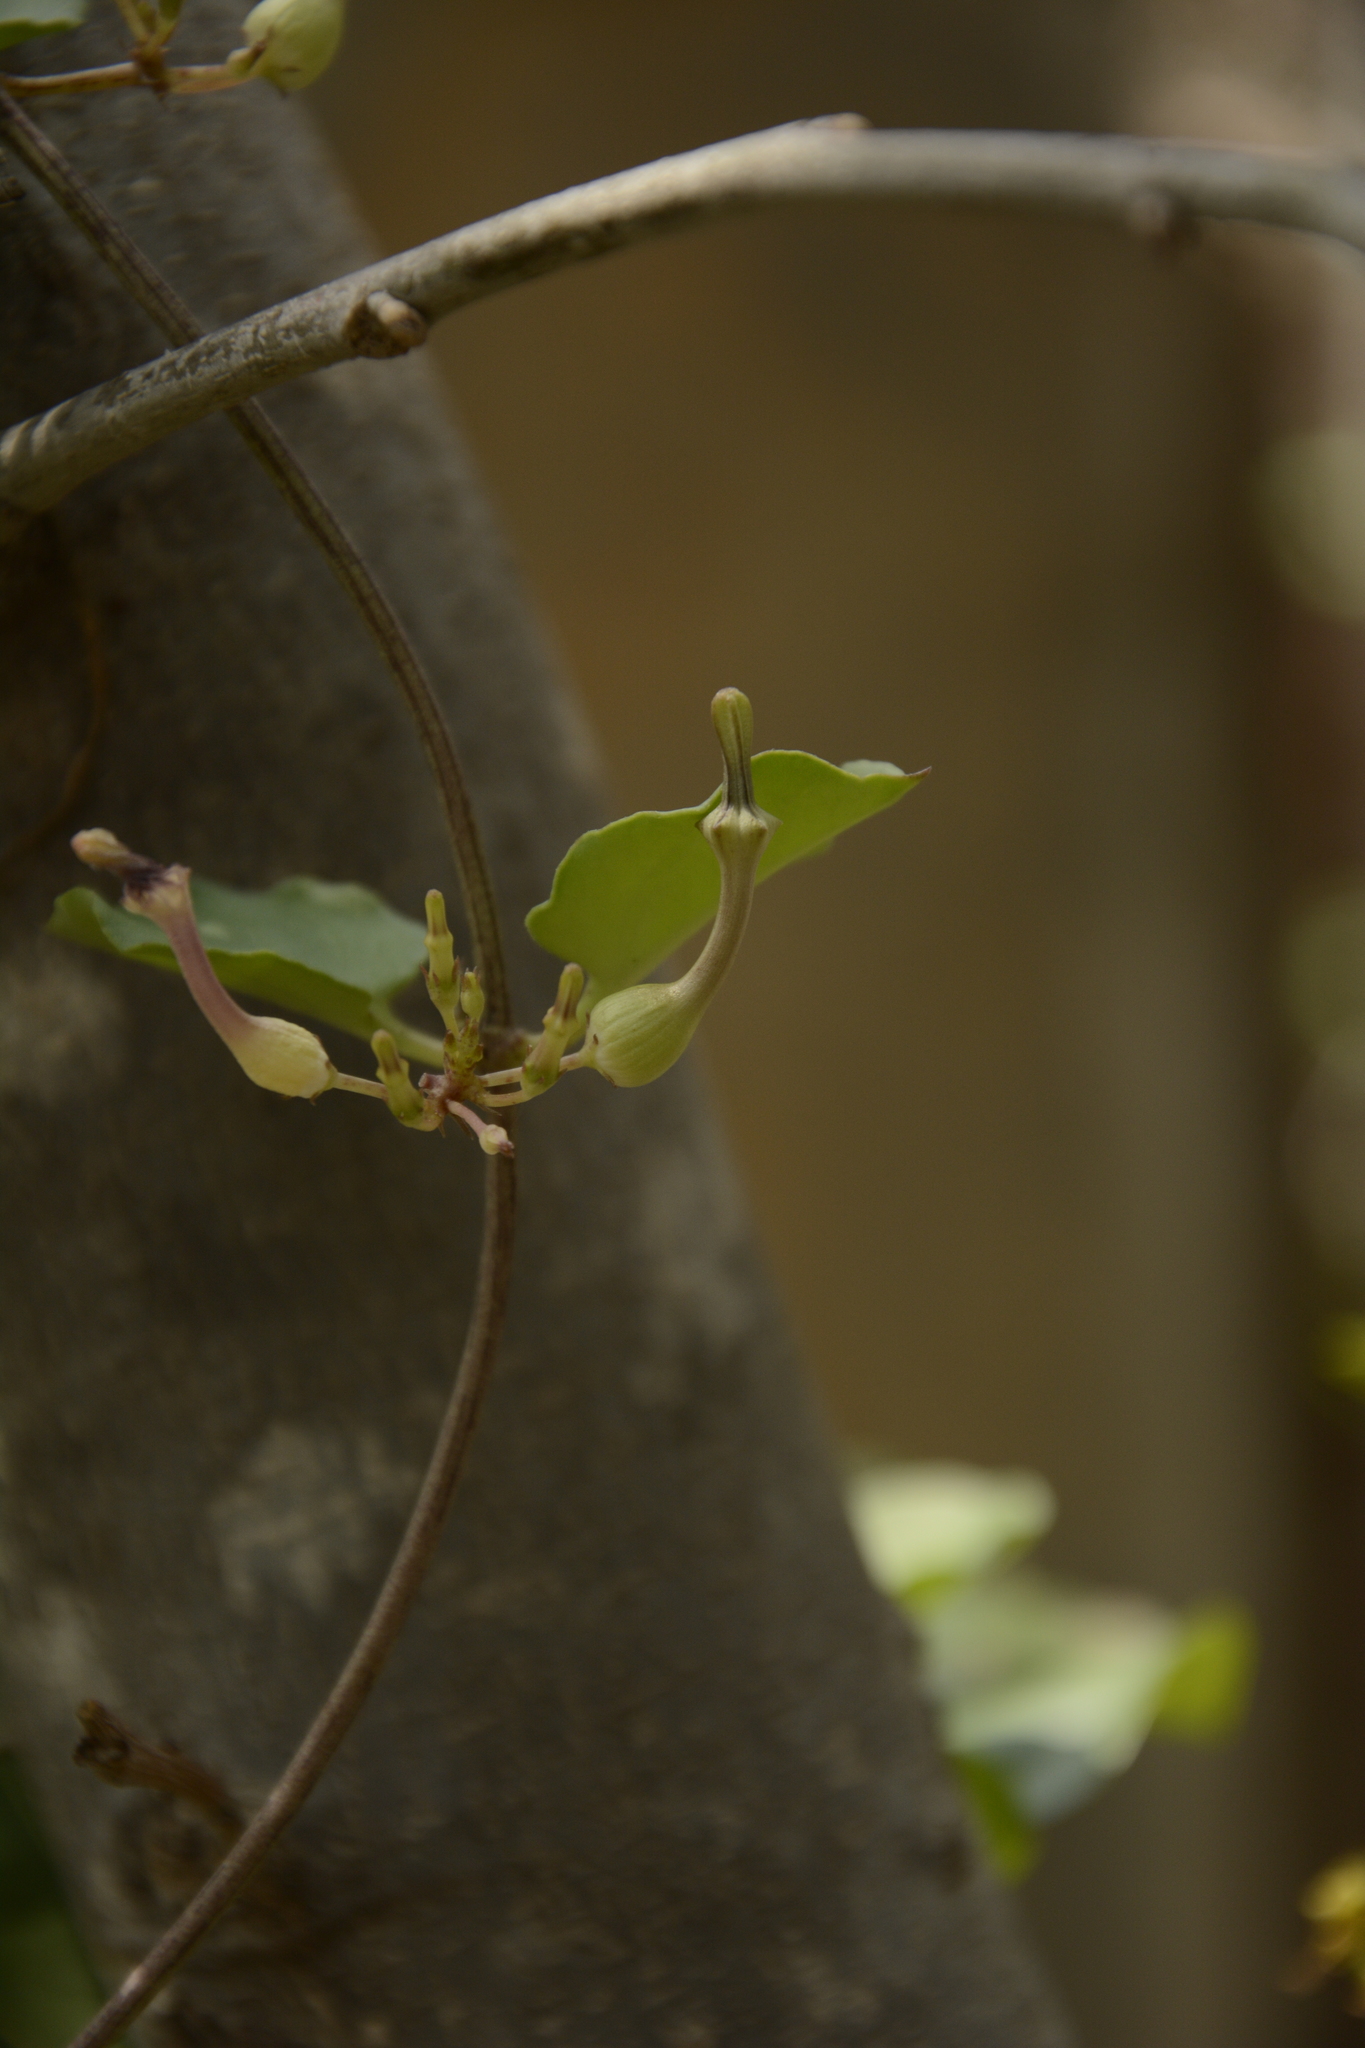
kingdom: Plantae
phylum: Tracheophyta
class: Magnoliopsida
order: Gentianales
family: Apocynaceae
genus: Ceropegia
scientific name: Ceropegia bulbosa
